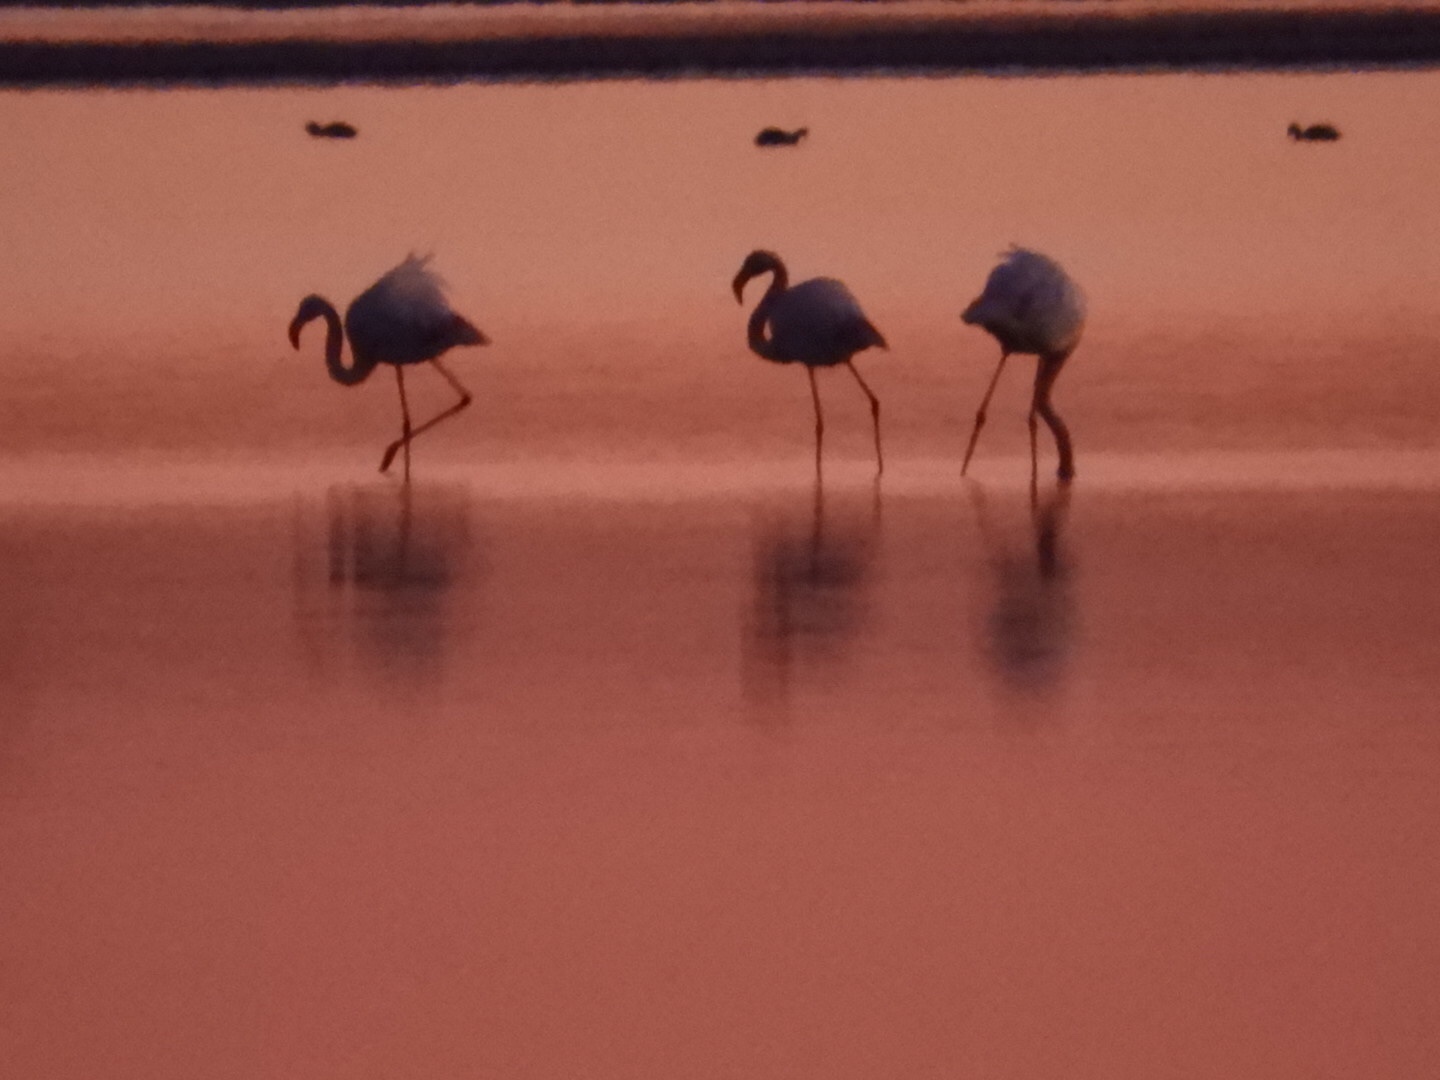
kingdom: Animalia
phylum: Chordata
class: Aves
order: Phoenicopteriformes
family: Phoenicopteridae
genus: Phoenicopterus
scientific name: Phoenicopterus roseus
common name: Greater flamingo
